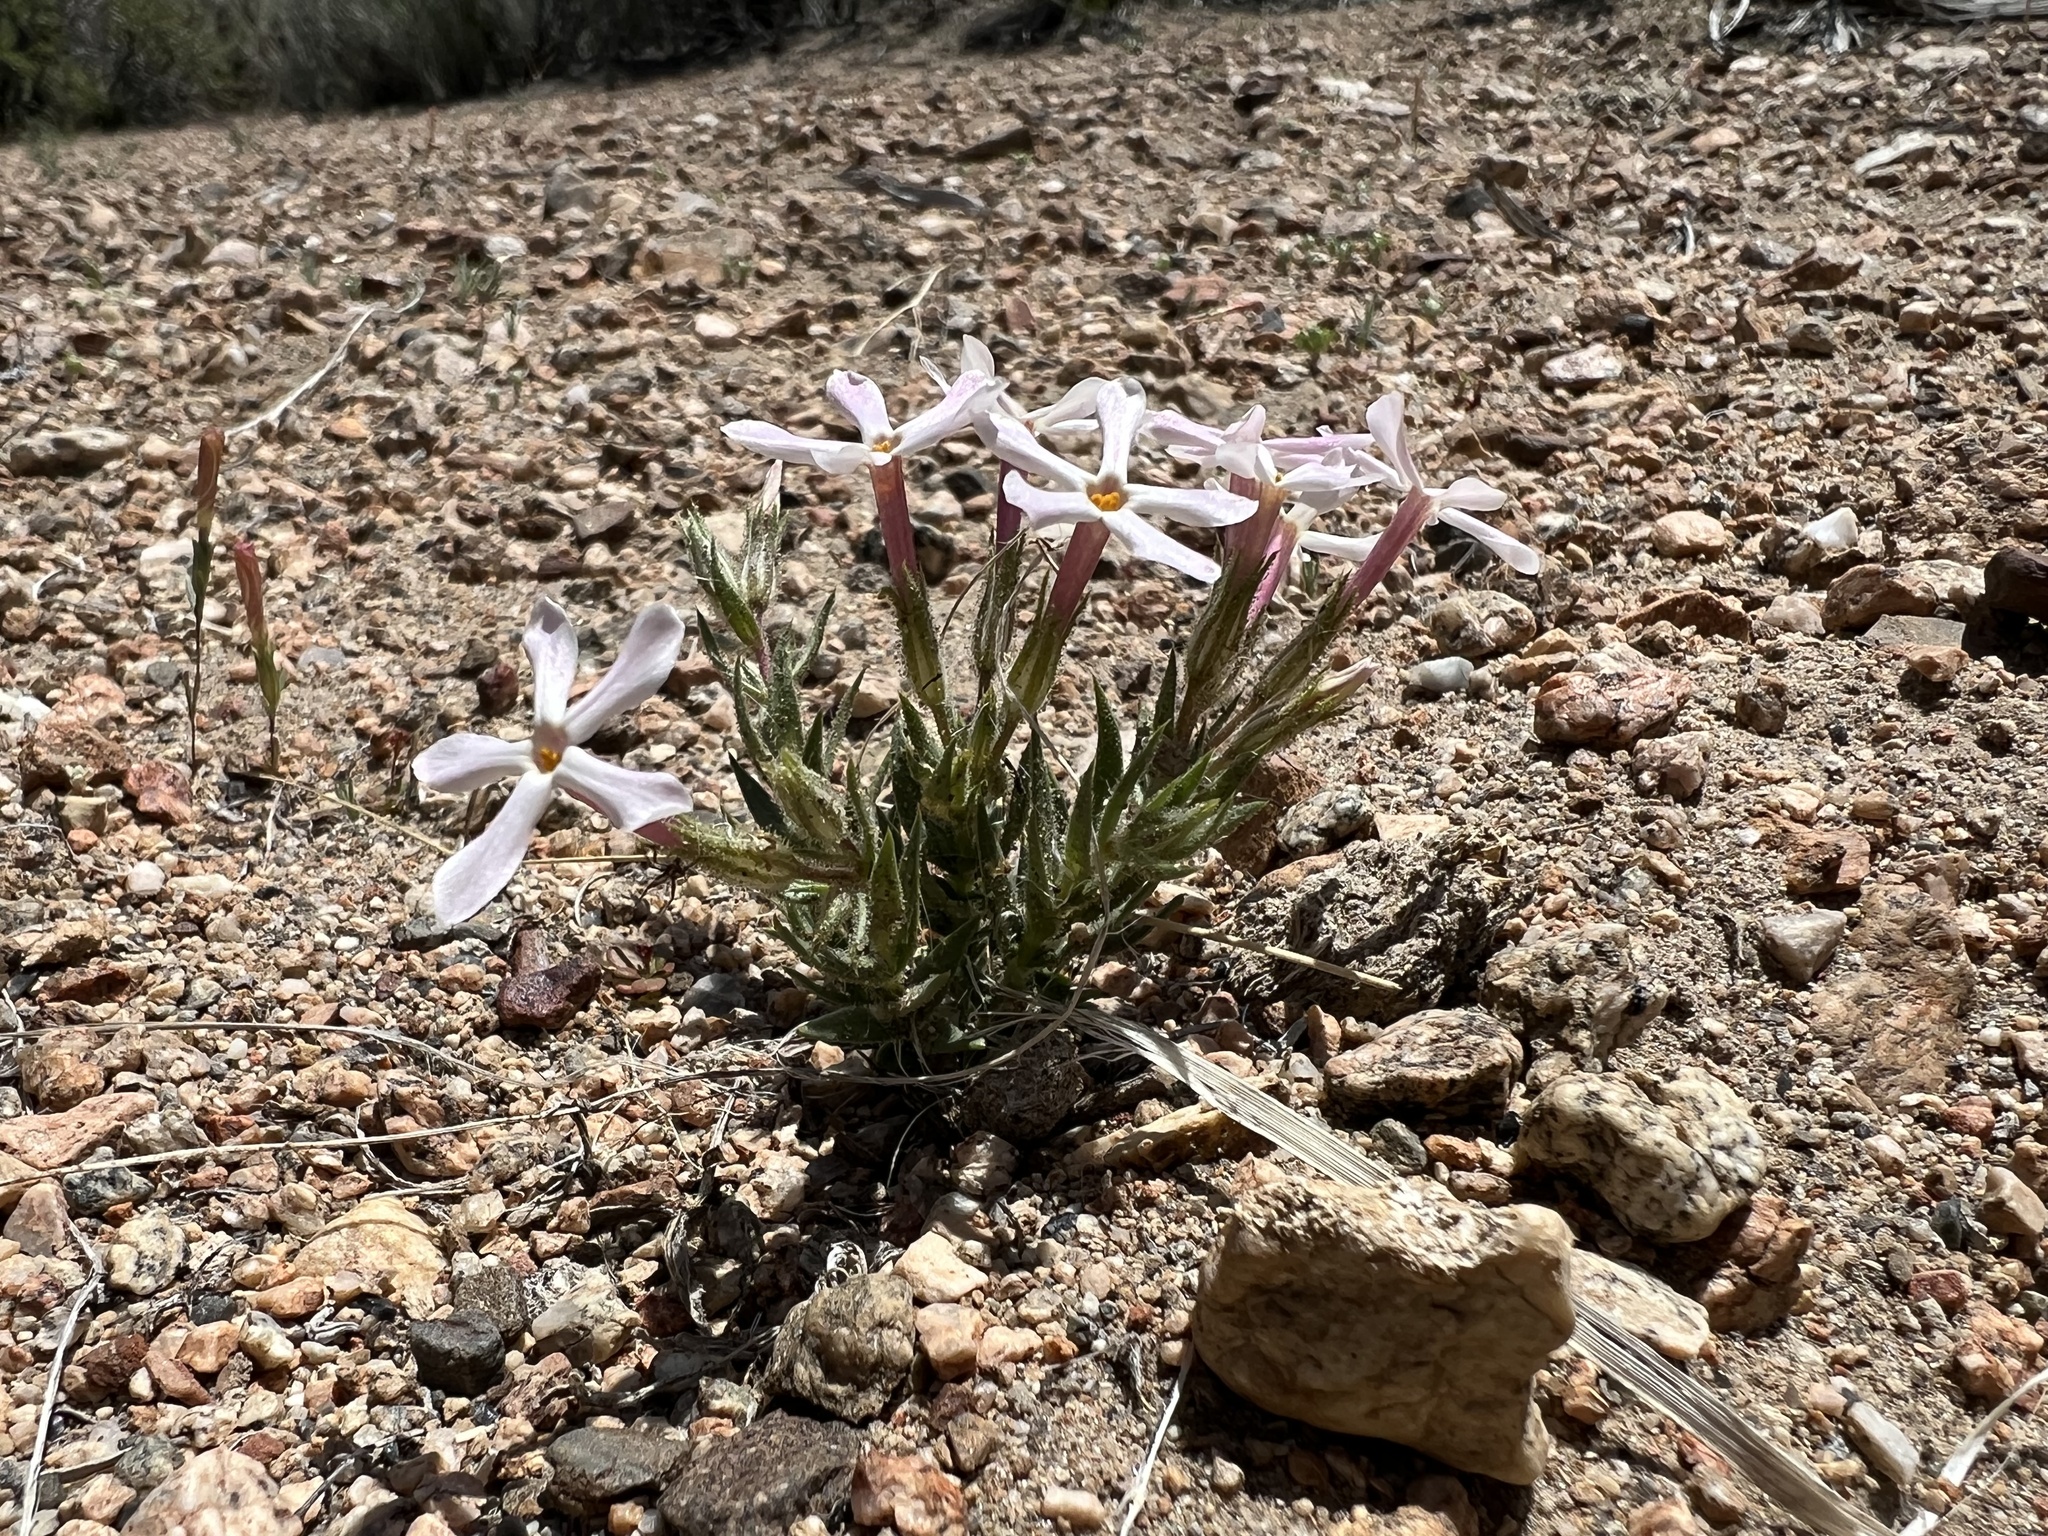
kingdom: Plantae
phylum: Tracheophyta
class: Magnoliopsida
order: Ericales
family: Polemoniaceae
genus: Phlox
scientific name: Phlox longifolia
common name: Longleaf phlox
